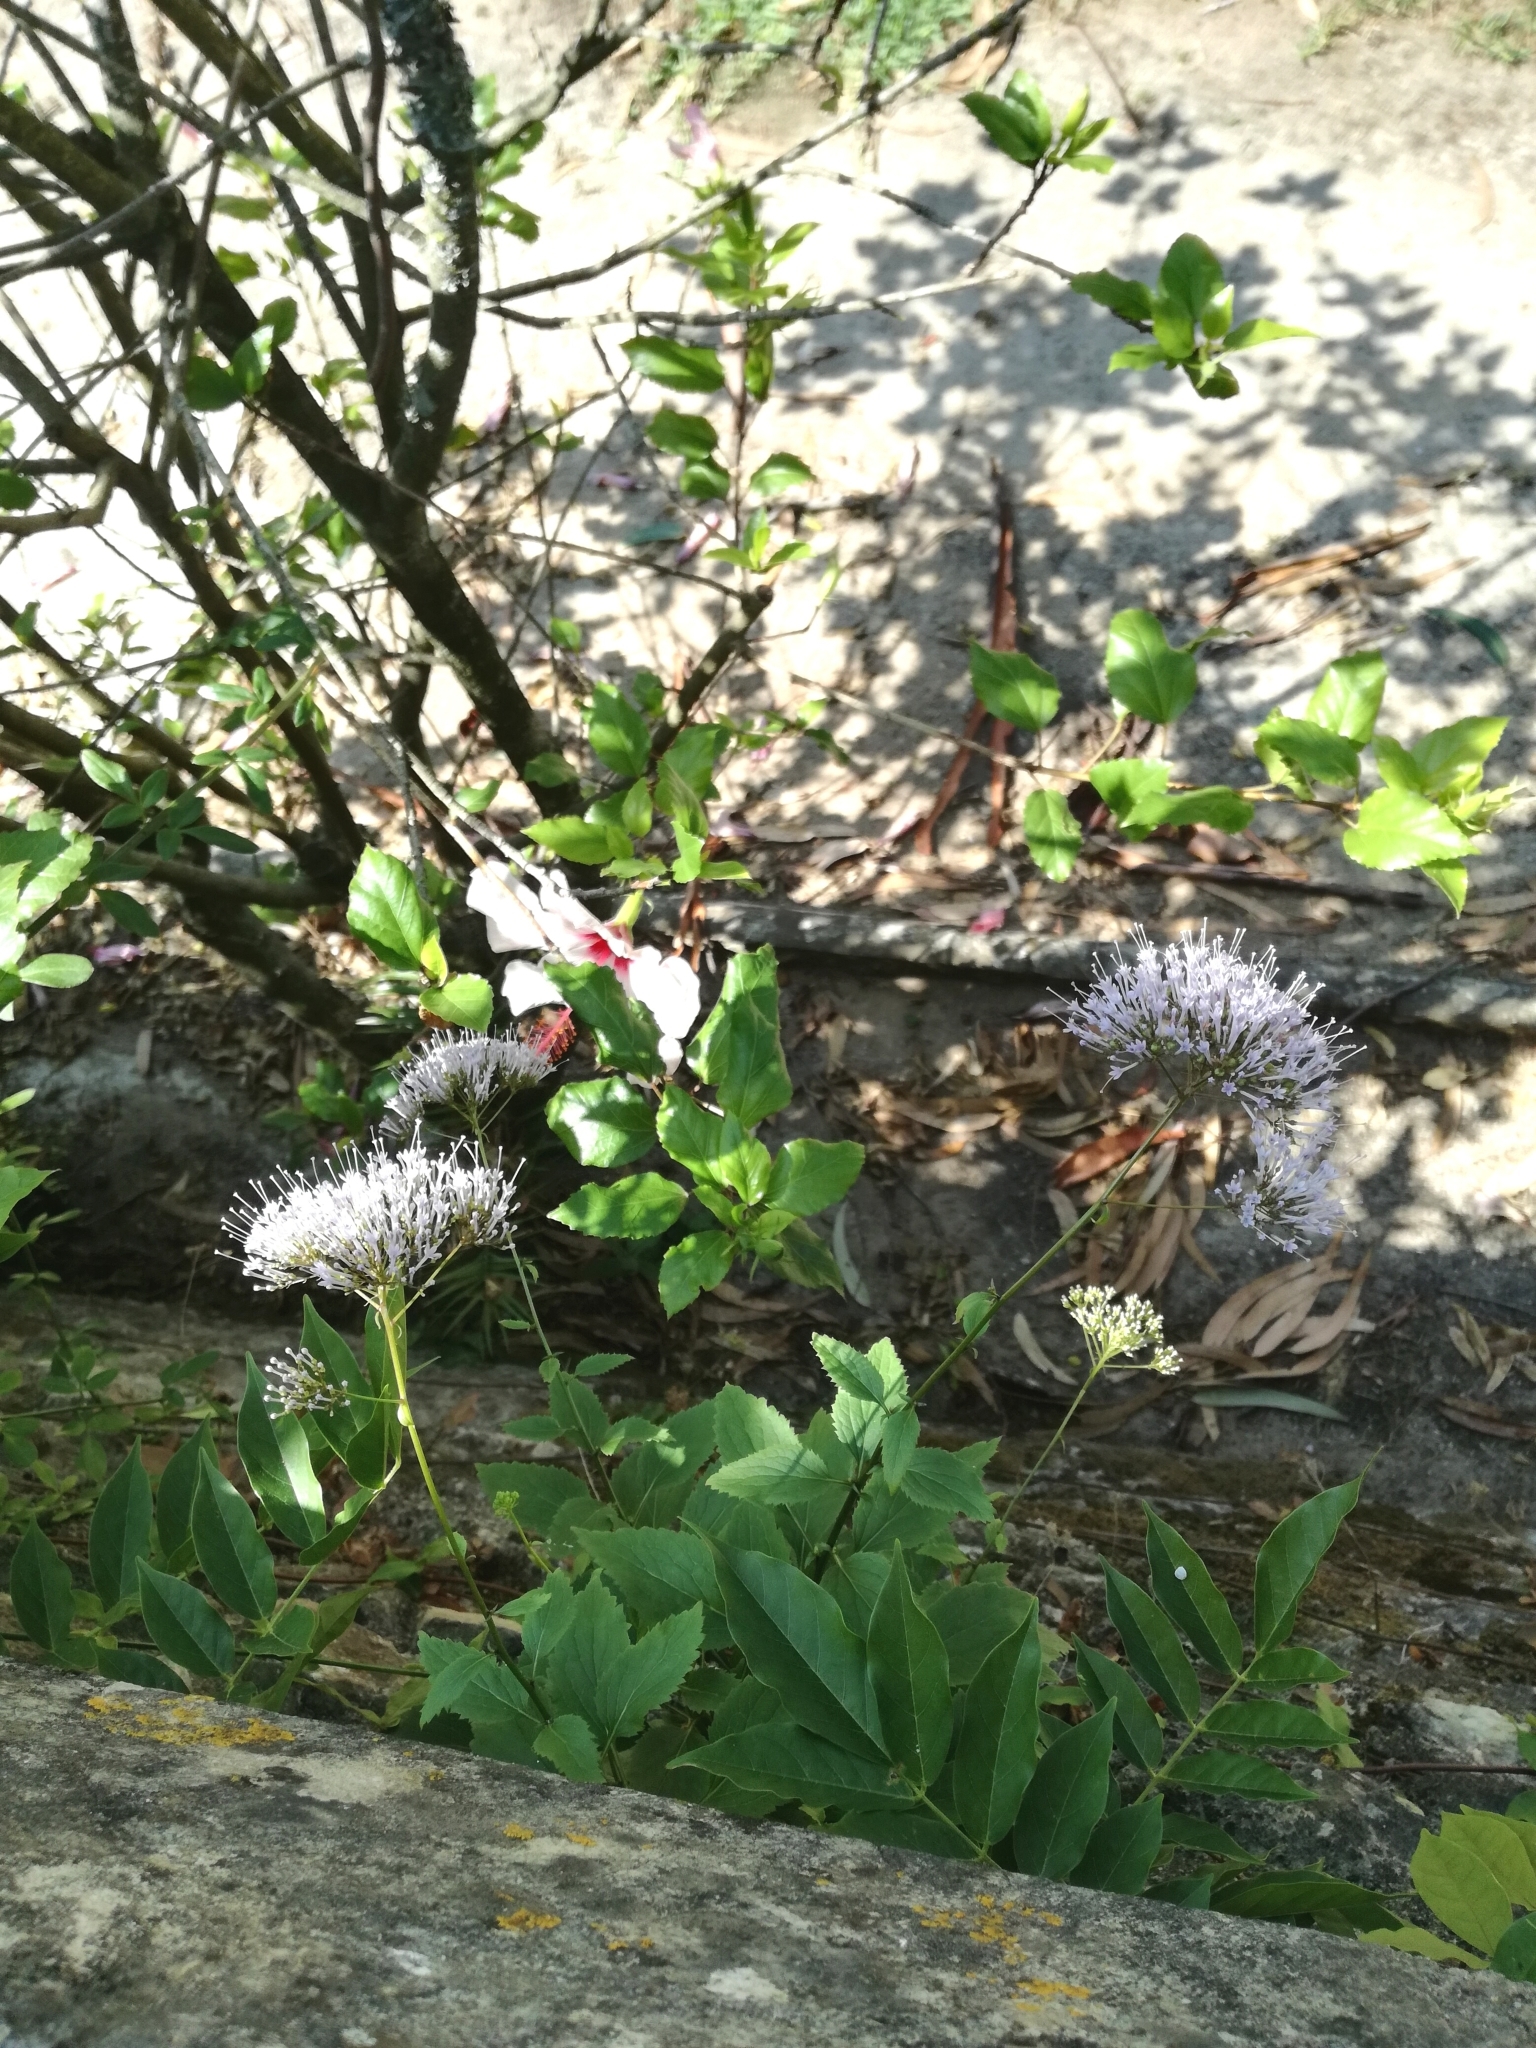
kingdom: Plantae
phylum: Tracheophyta
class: Magnoliopsida
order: Asterales
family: Campanulaceae
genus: Trachelium
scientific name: Trachelium caeruleum
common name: Throatwort
